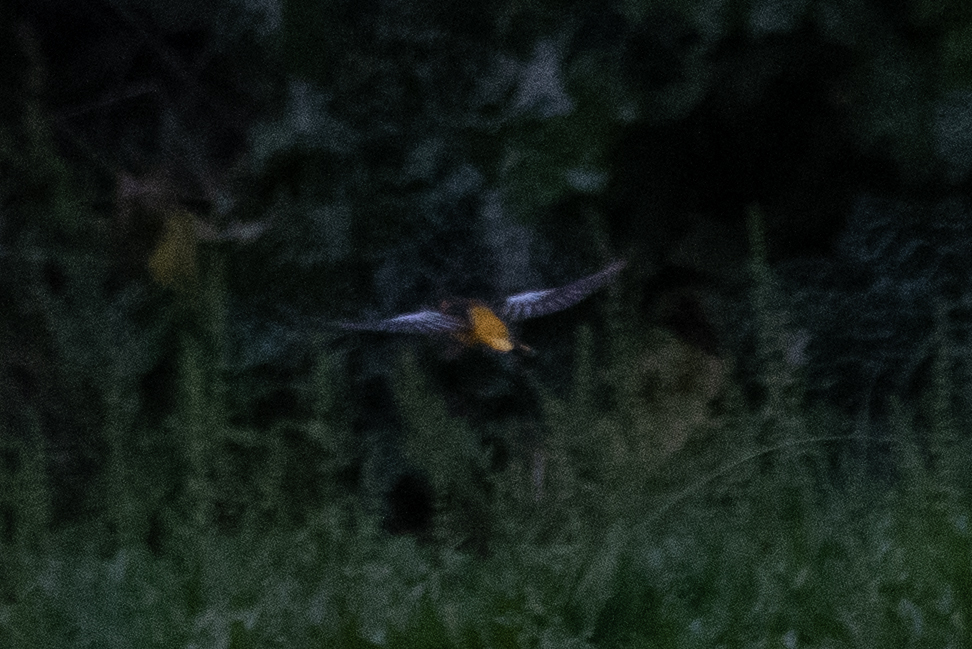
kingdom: Animalia
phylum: Chordata
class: Aves
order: Passeriformes
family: Icteridae
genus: Icterus
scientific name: Icterus bullockii
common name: Bullock's oriole
